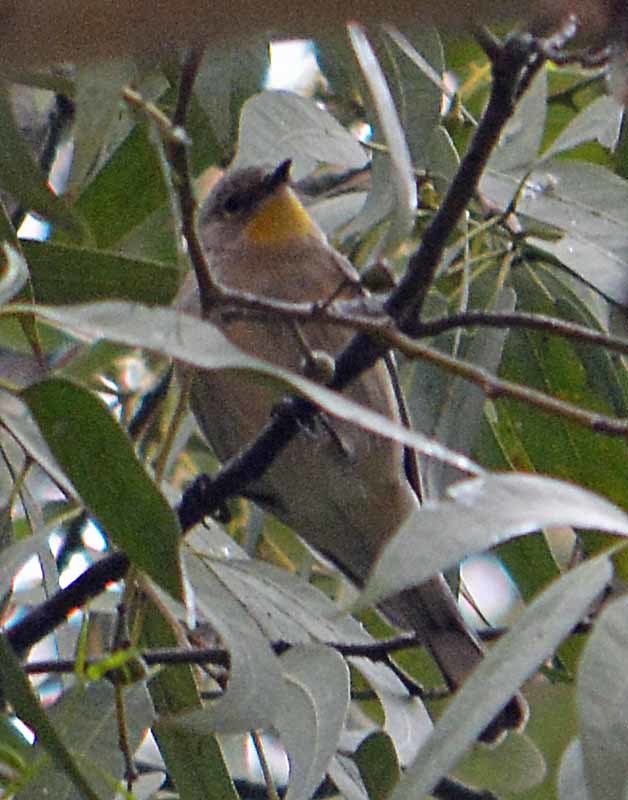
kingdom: Animalia
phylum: Chordata
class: Aves
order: Passeriformes
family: Parulidae
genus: Setophaga
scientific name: Setophaga coronata
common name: Myrtle warbler
